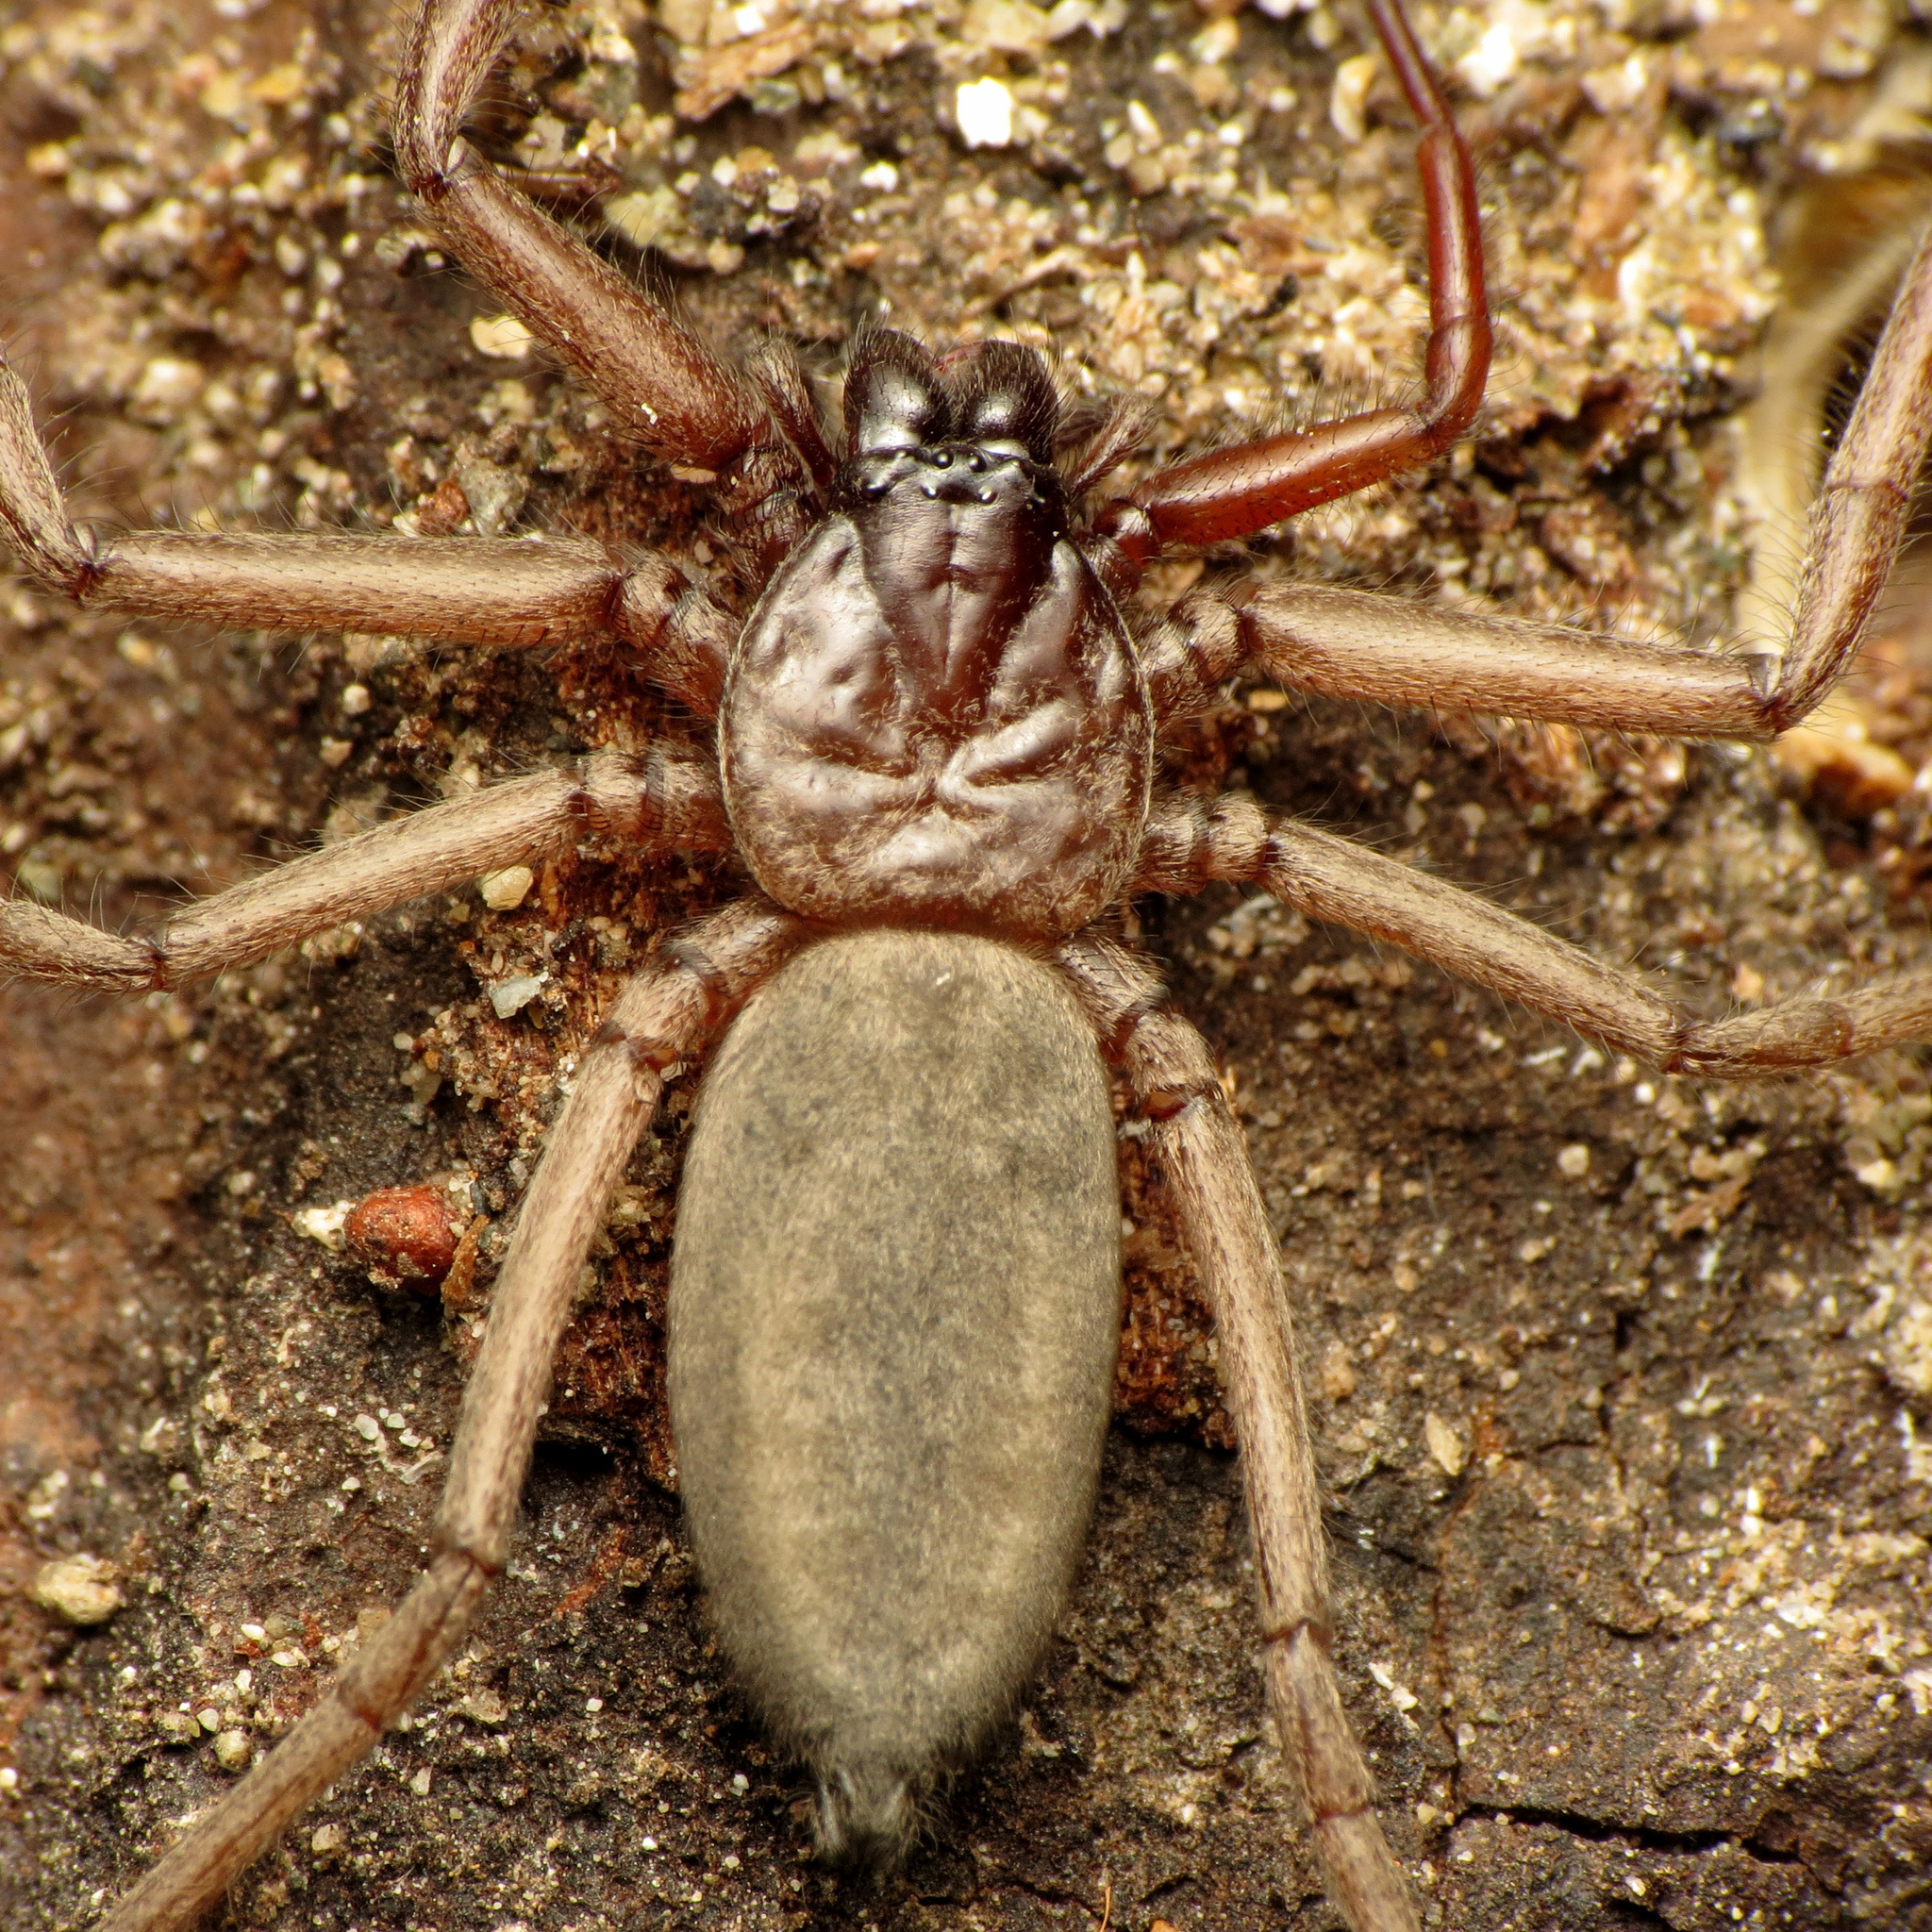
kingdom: Animalia
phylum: Arthropoda
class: Arachnida
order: Araneae
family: Trochanteriidae
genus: Hemicloea
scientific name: Hemicloea rogenhoferi
